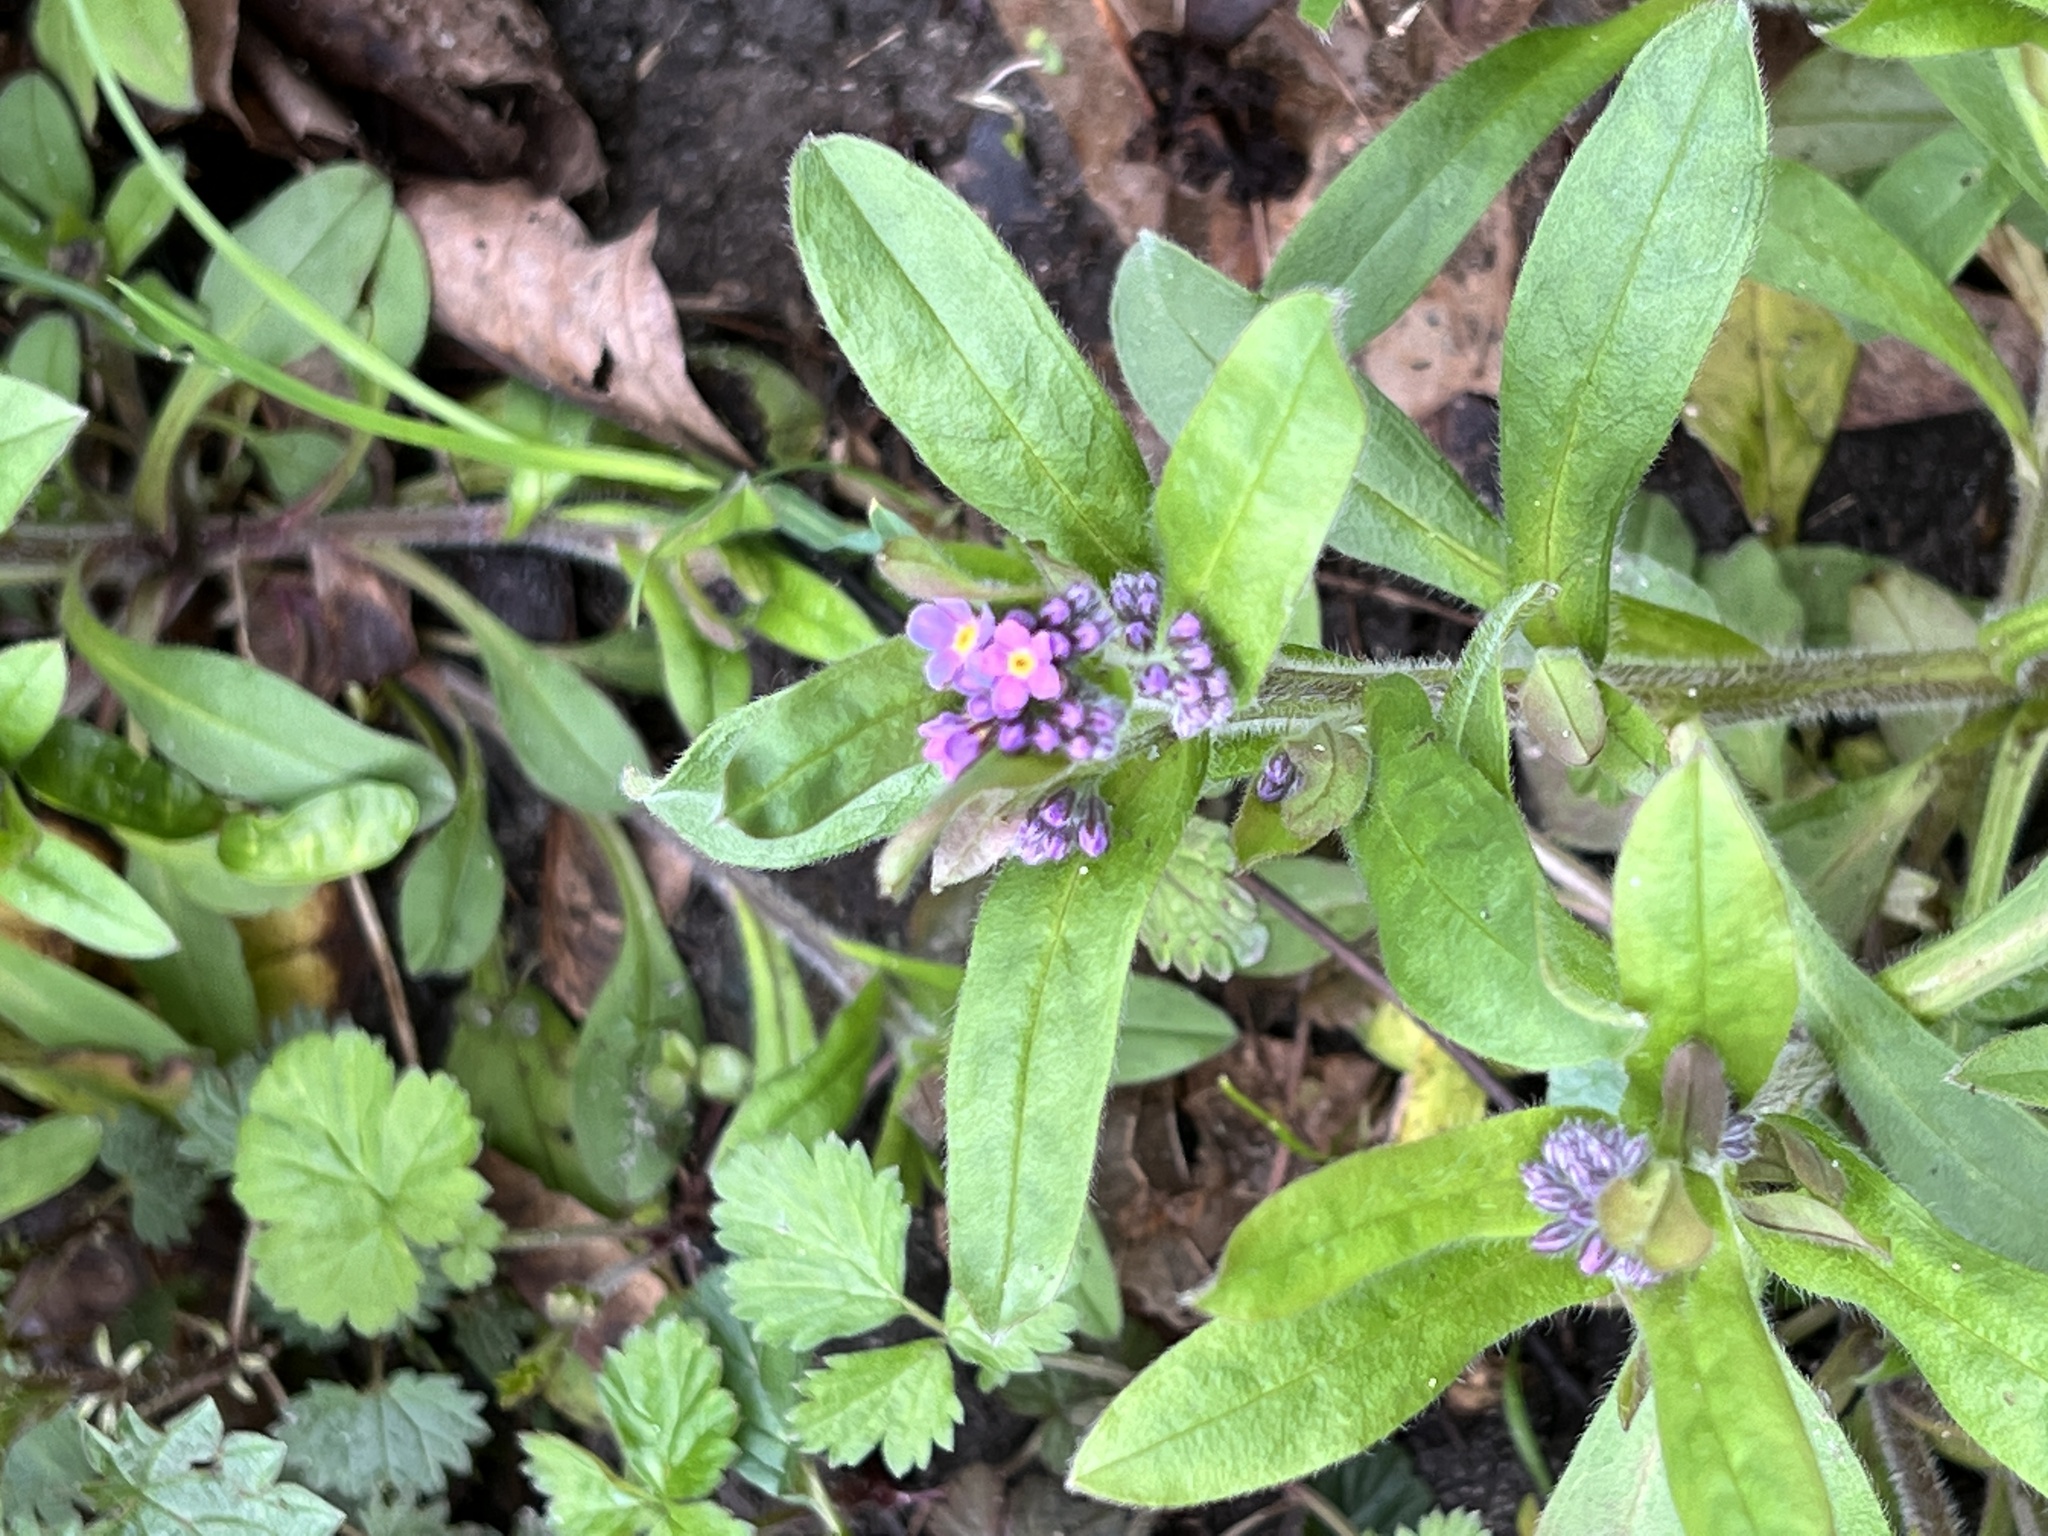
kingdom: Plantae
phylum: Tracheophyta
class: Magnoliopsida
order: Boraginales
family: Boraginaceae
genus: Myosotis
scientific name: Myosotis sylvatica
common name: Wood forget-me-not
